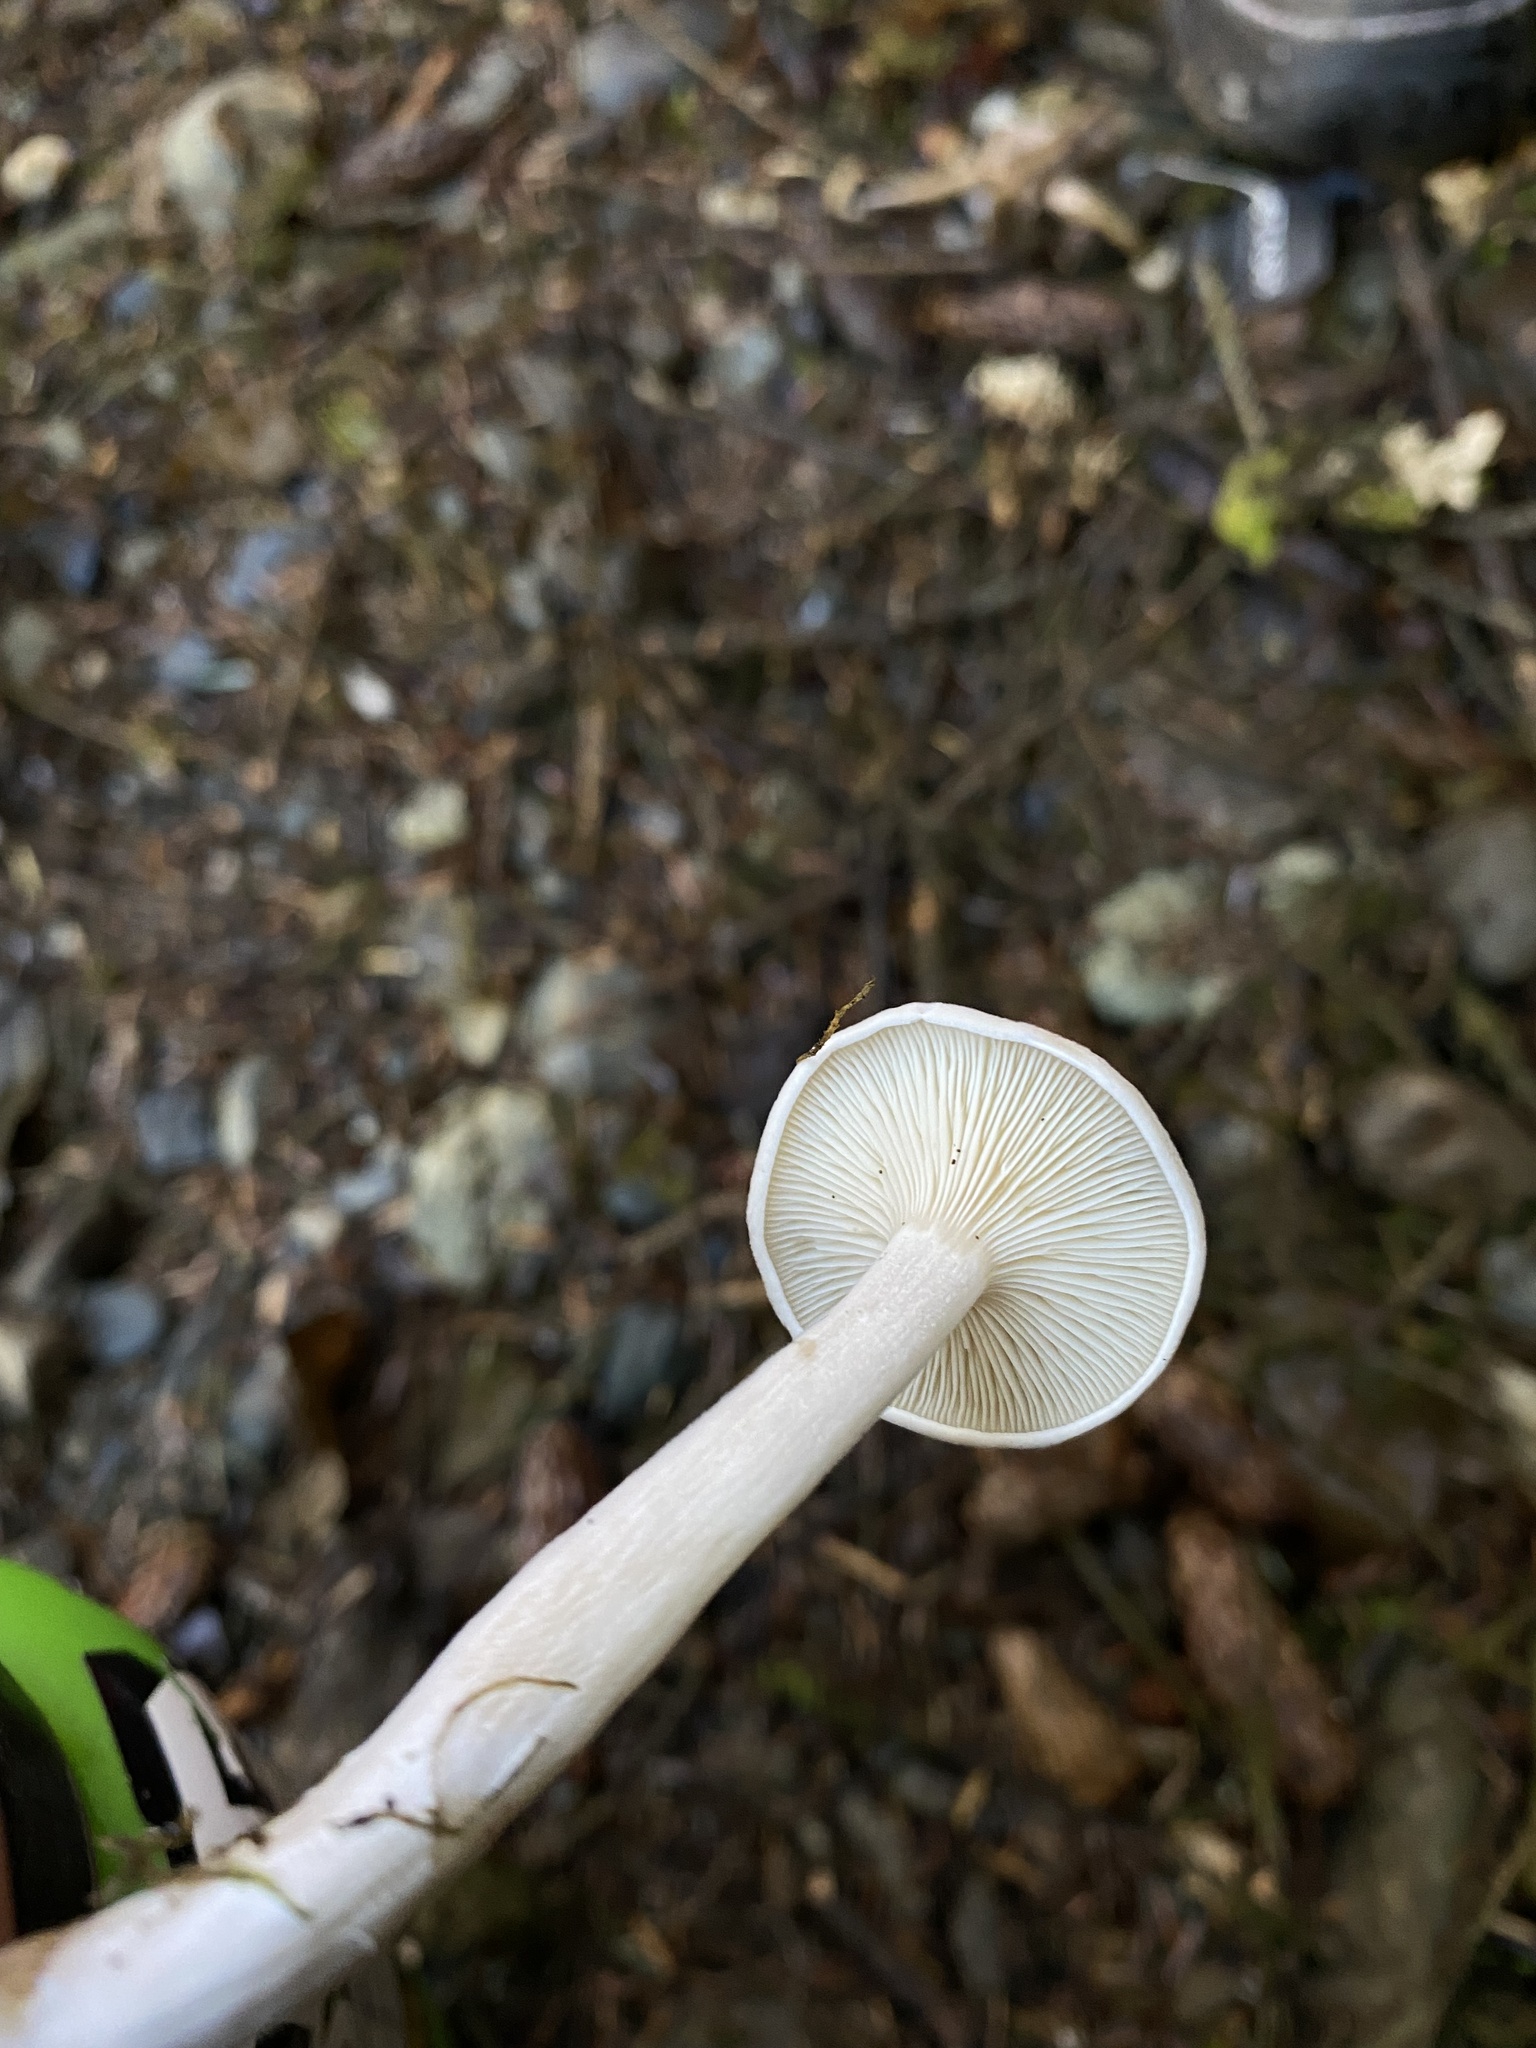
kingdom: Fungi
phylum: Basidiomycota
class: Agaricomycetes
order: Agaricales
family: Entolomataceae
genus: Clitopilus
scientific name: Clitopilus cystidiatus
